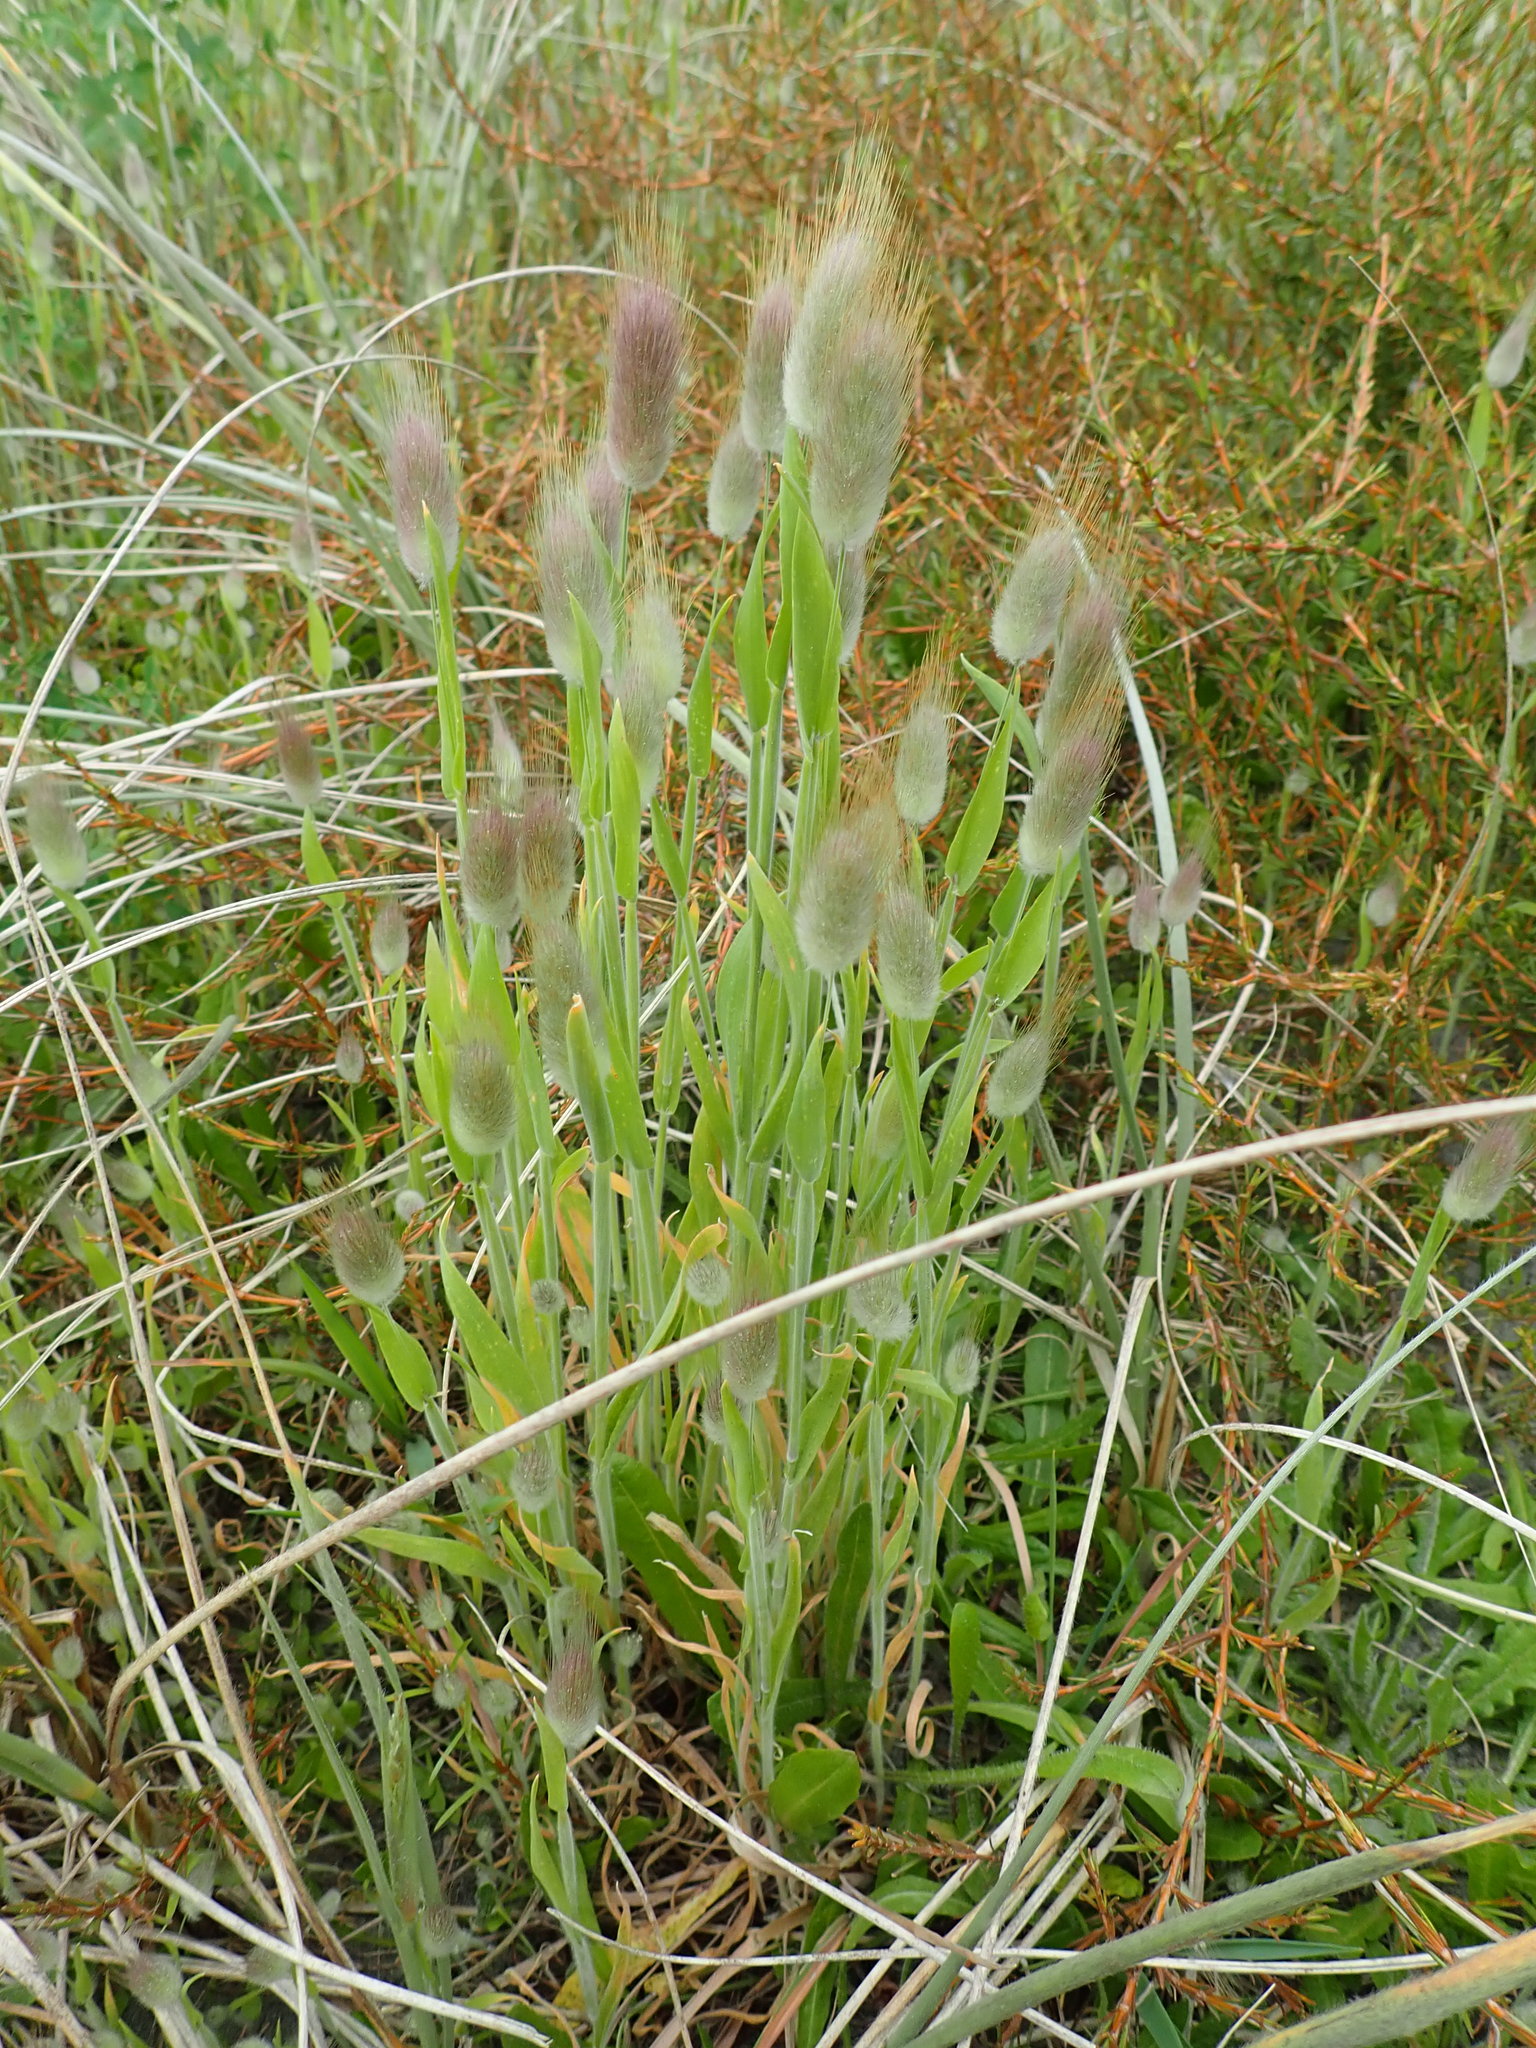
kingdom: Plantae
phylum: Tracheophyta
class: Liliopsida
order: Poales
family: Poaceae
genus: Lagurus
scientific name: Lagurus ovatus
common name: Hare's-tail
